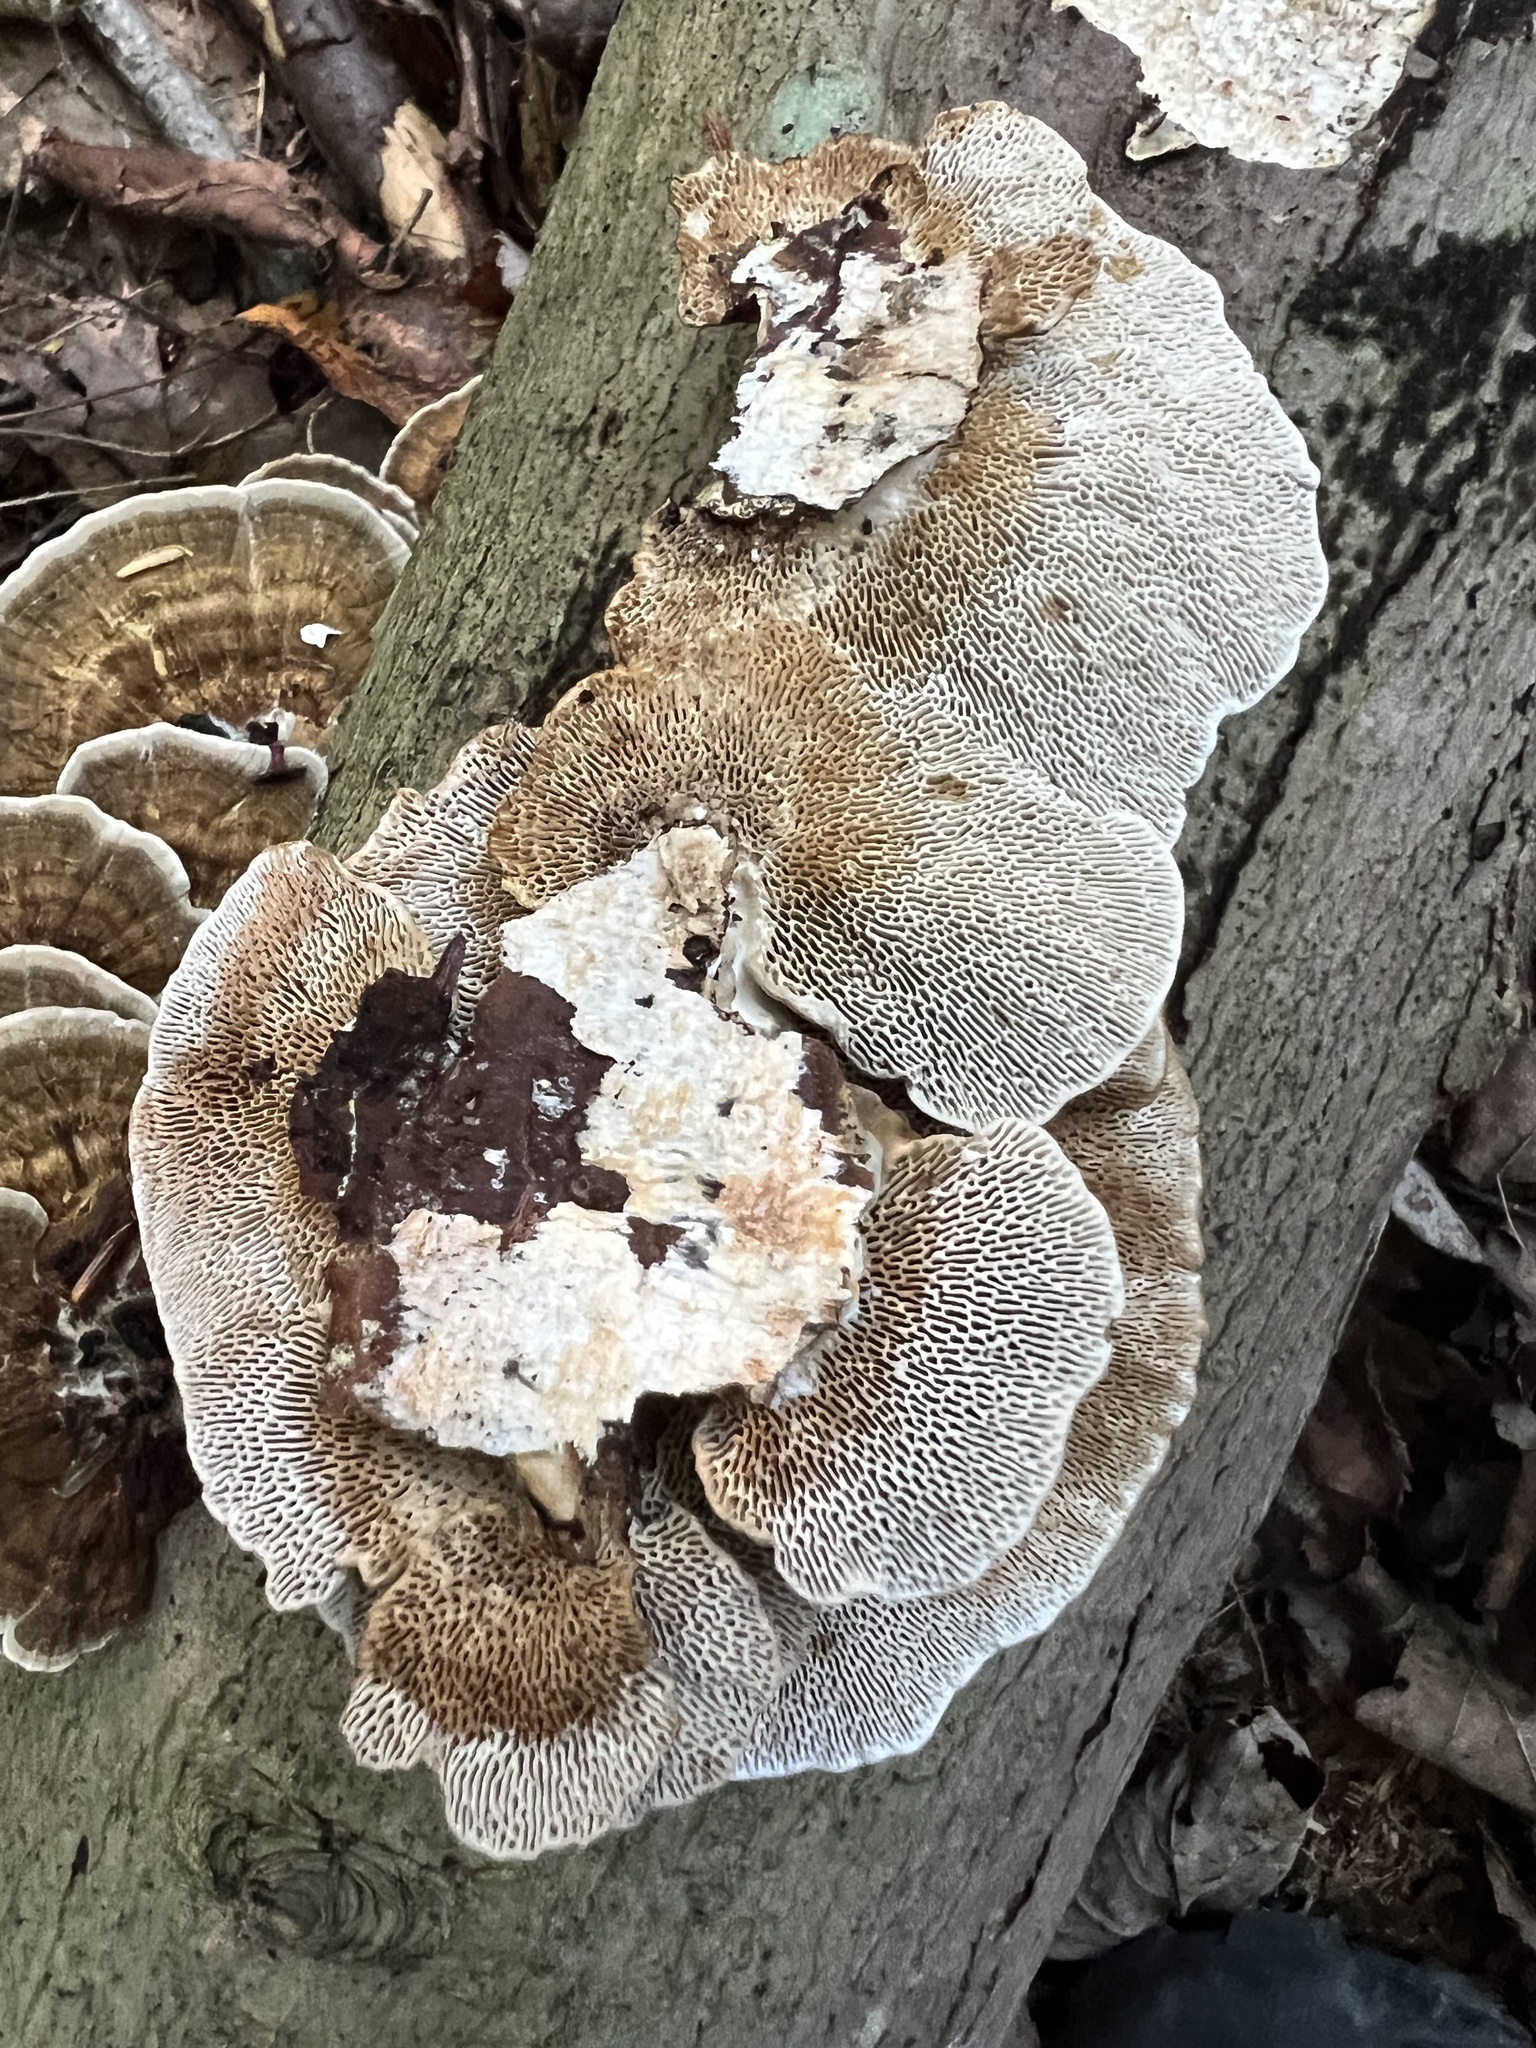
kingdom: Fungi
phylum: Basidiomycota
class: Agaricomycetes
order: Polyporales
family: Polyporaceae
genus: Daedaleopsis
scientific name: Daedaleopsis confragosa
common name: Blushing bracket
